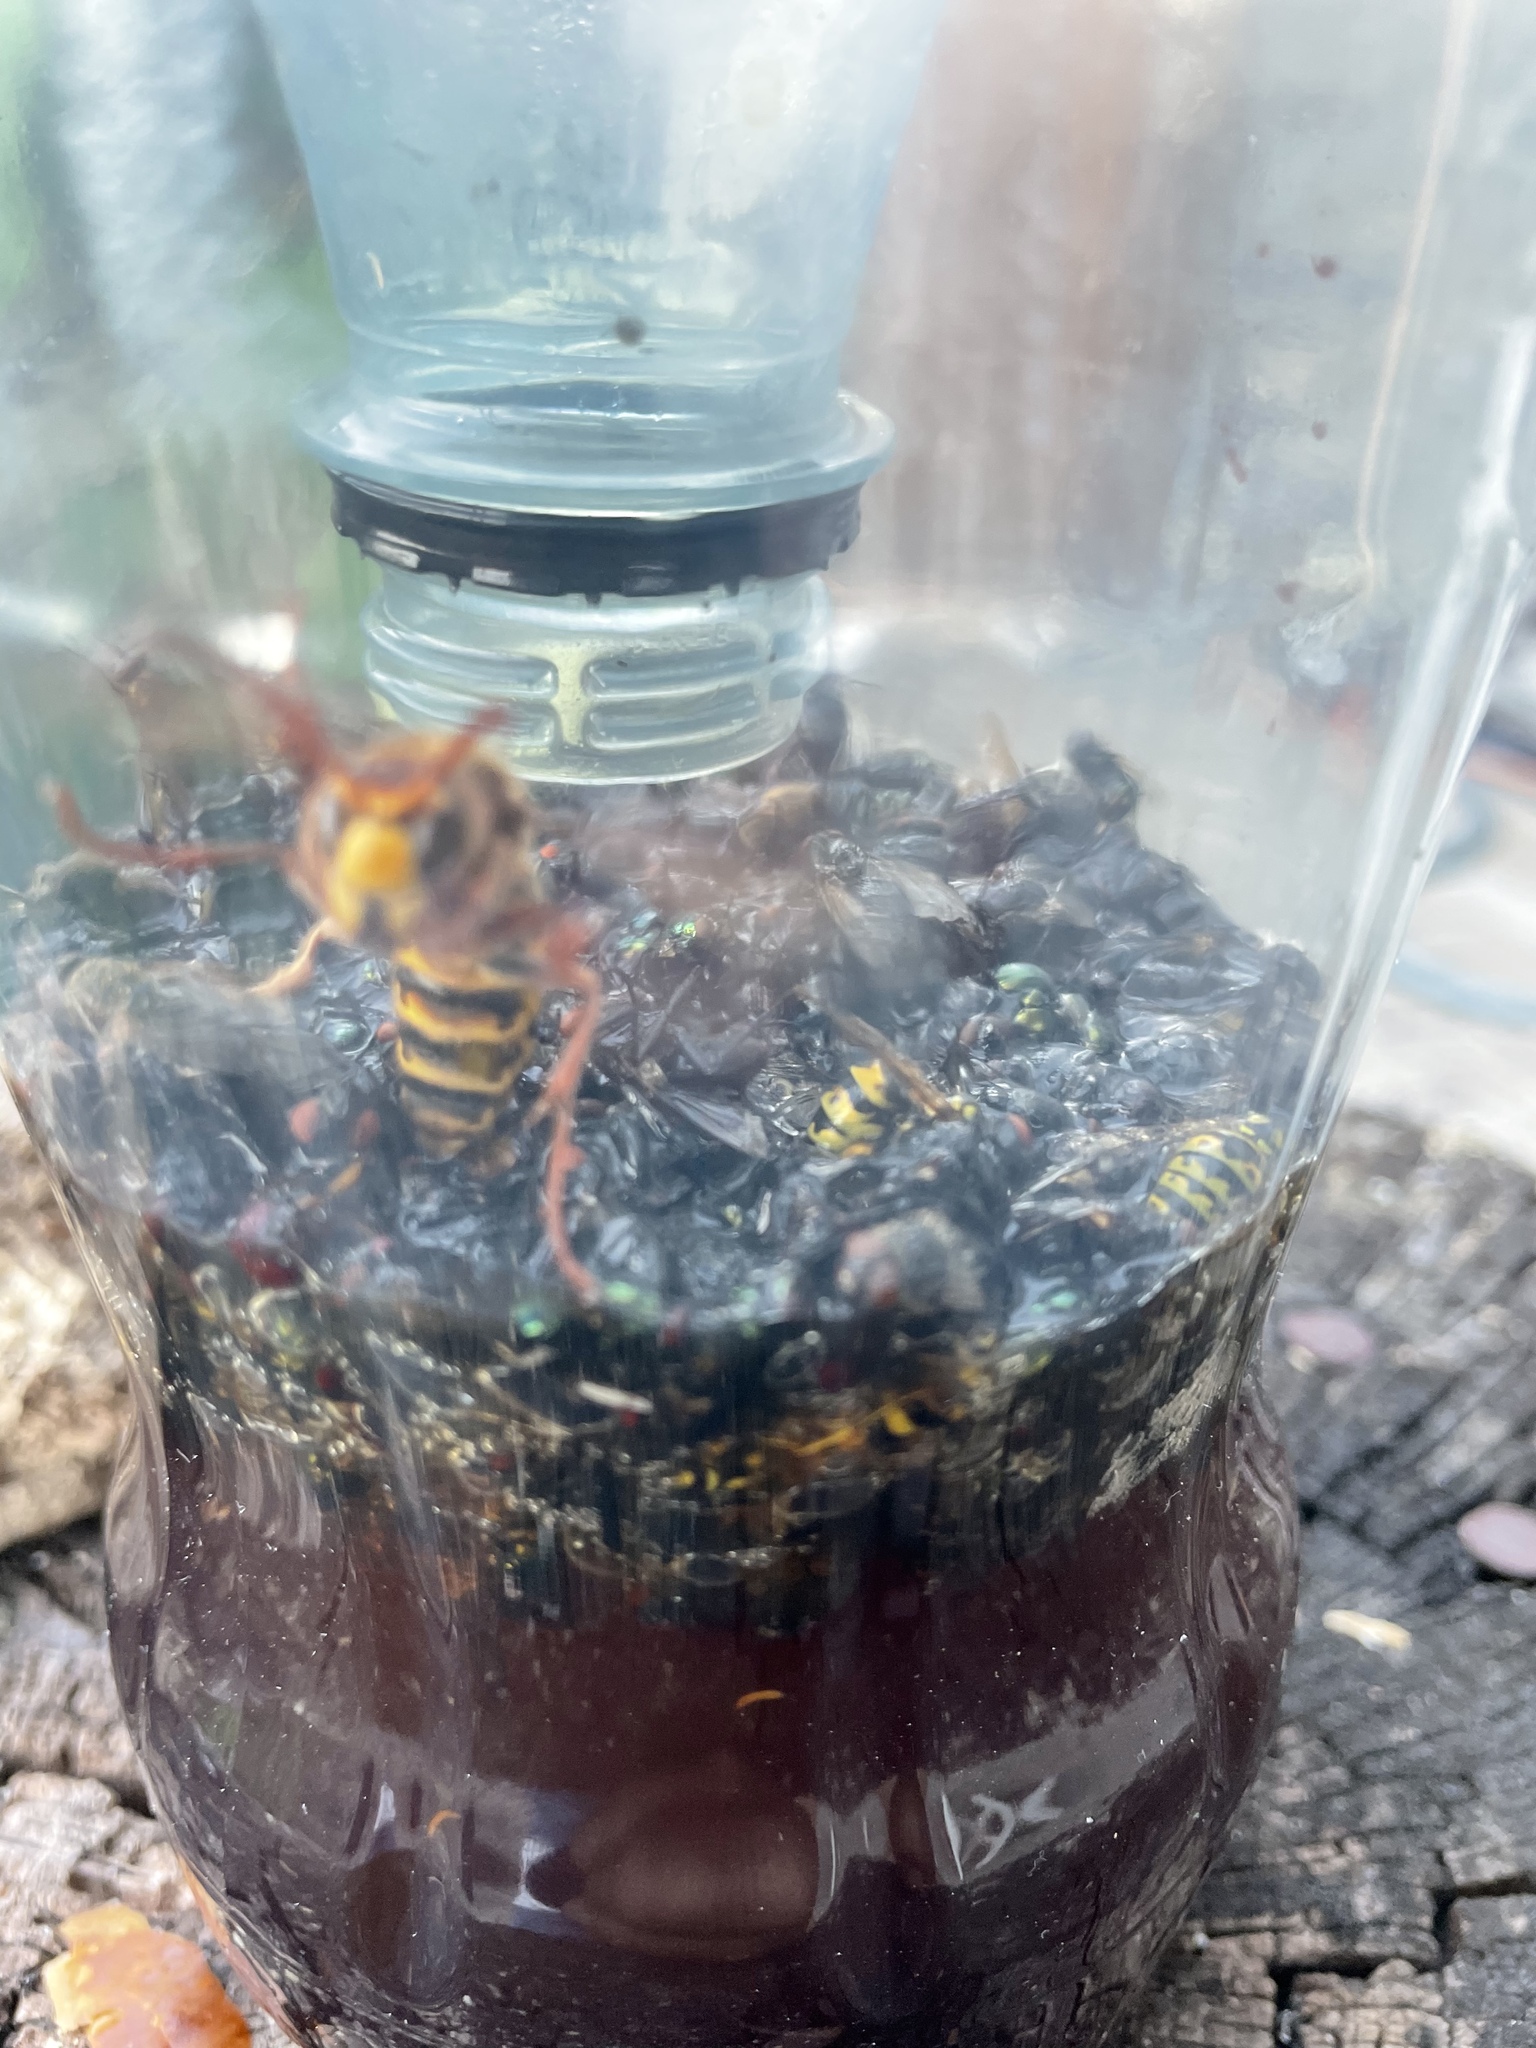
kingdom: Animalia
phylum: Arthropoda
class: Insecta
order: Hymenoptera
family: Vespidae
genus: Vespa
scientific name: Vespa crabro
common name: Hornet
